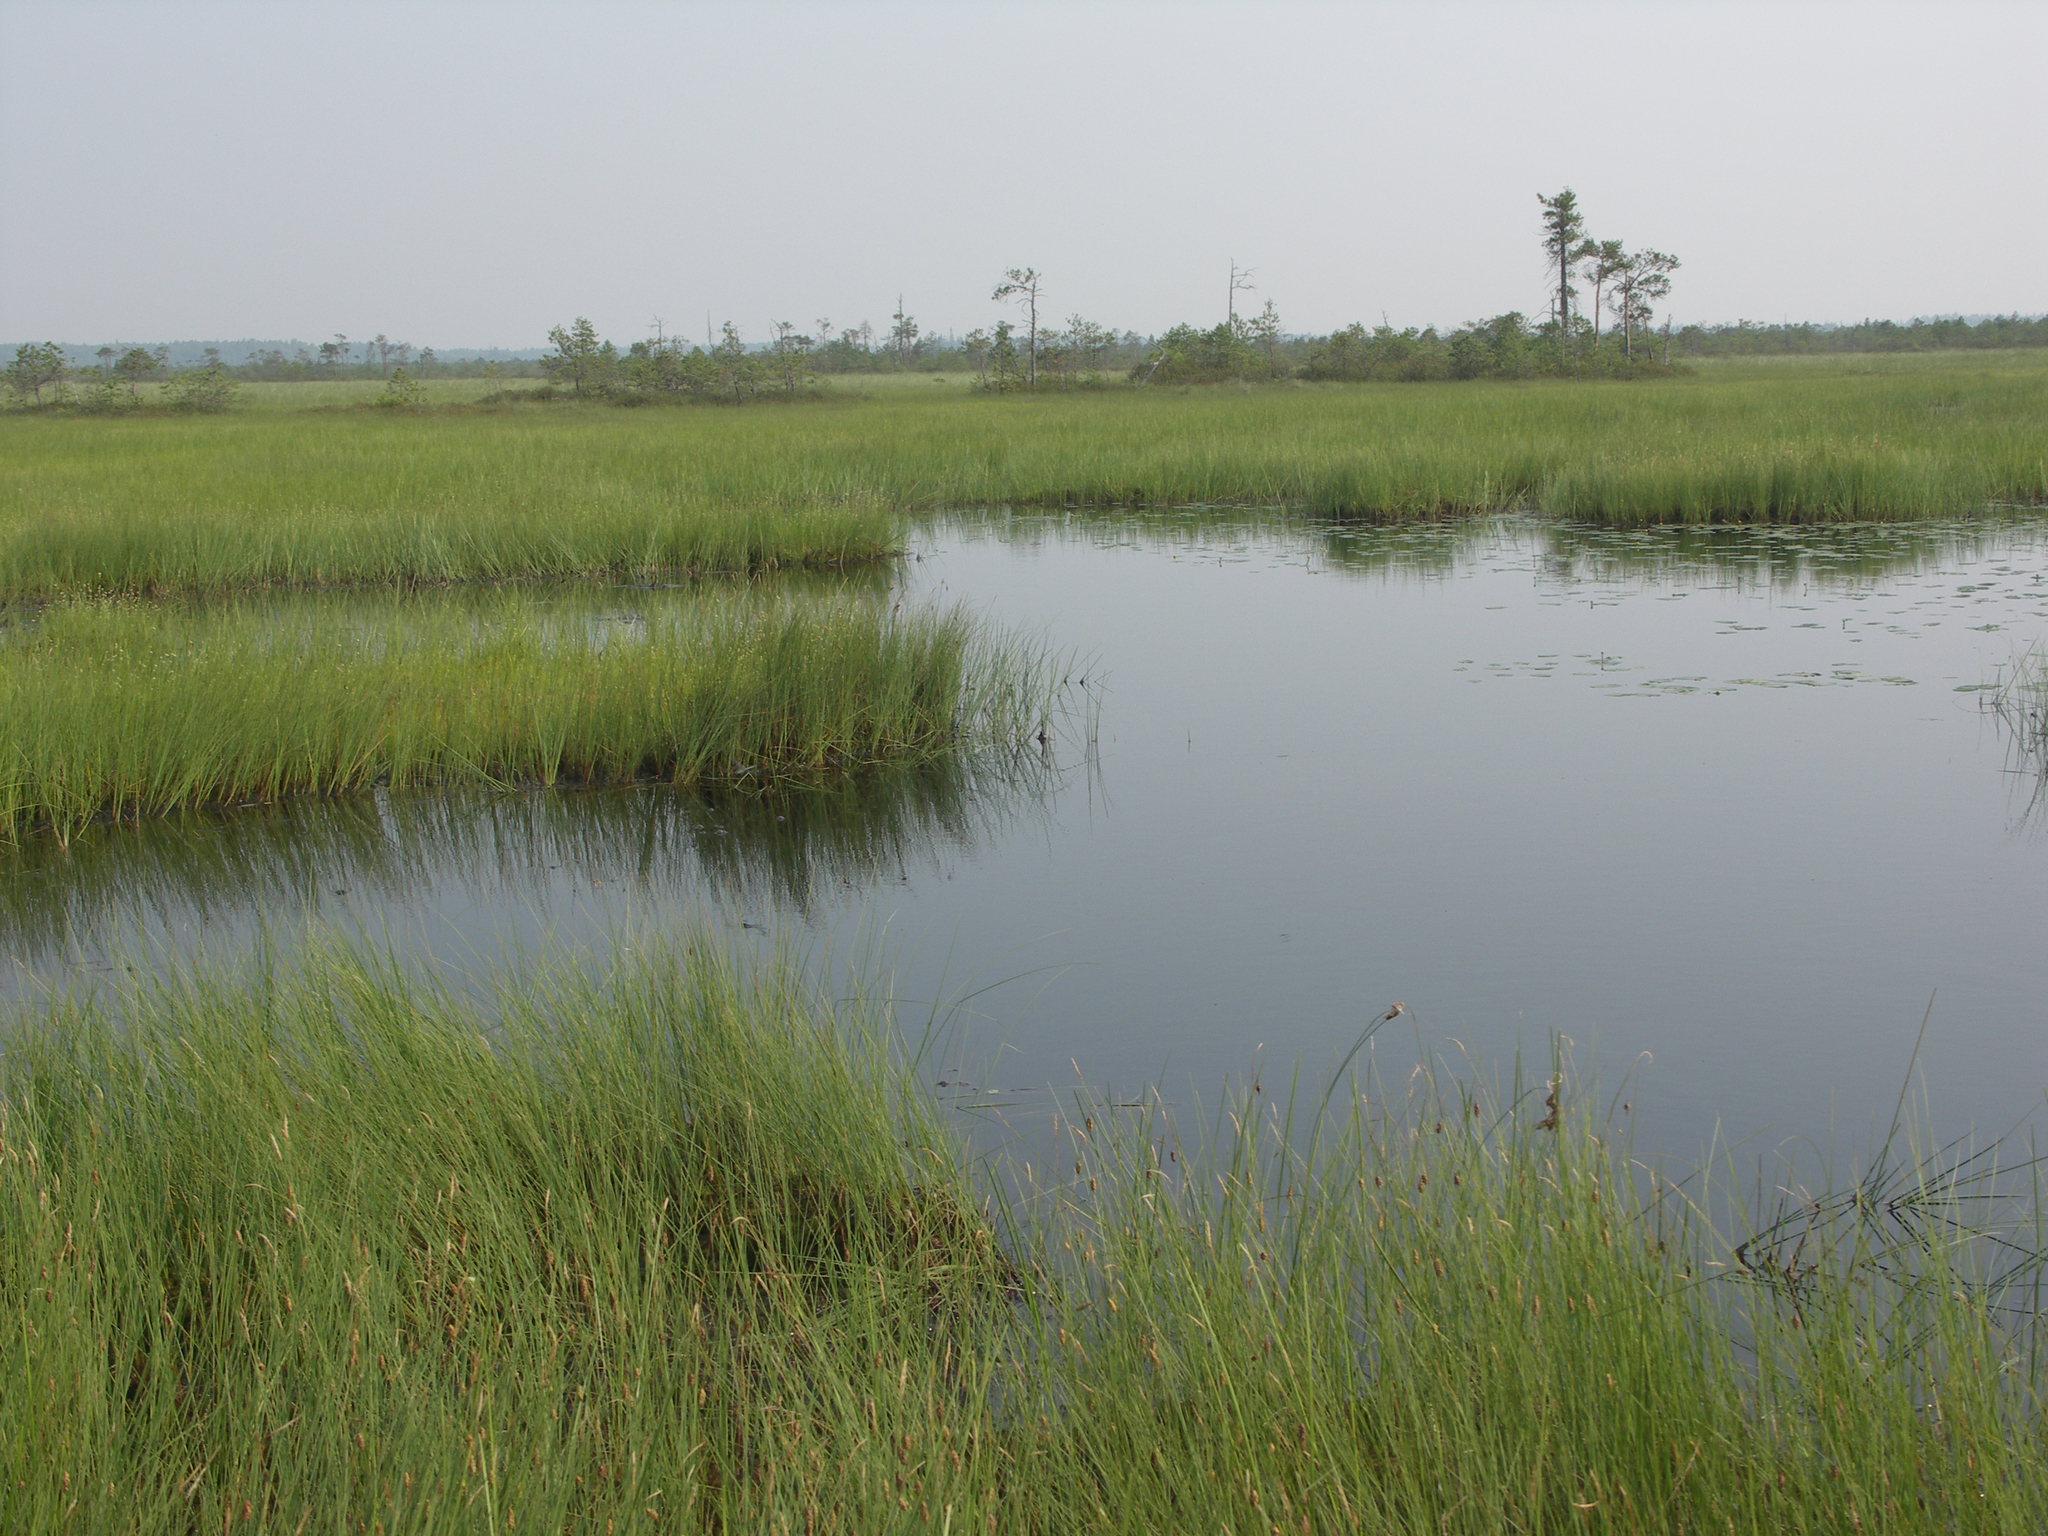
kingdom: Plantae
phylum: Tracheophyta
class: Pinopsida
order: Pinales
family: Pinaceae
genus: Pinus
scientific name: Pinus sylvestris
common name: Scots pine
